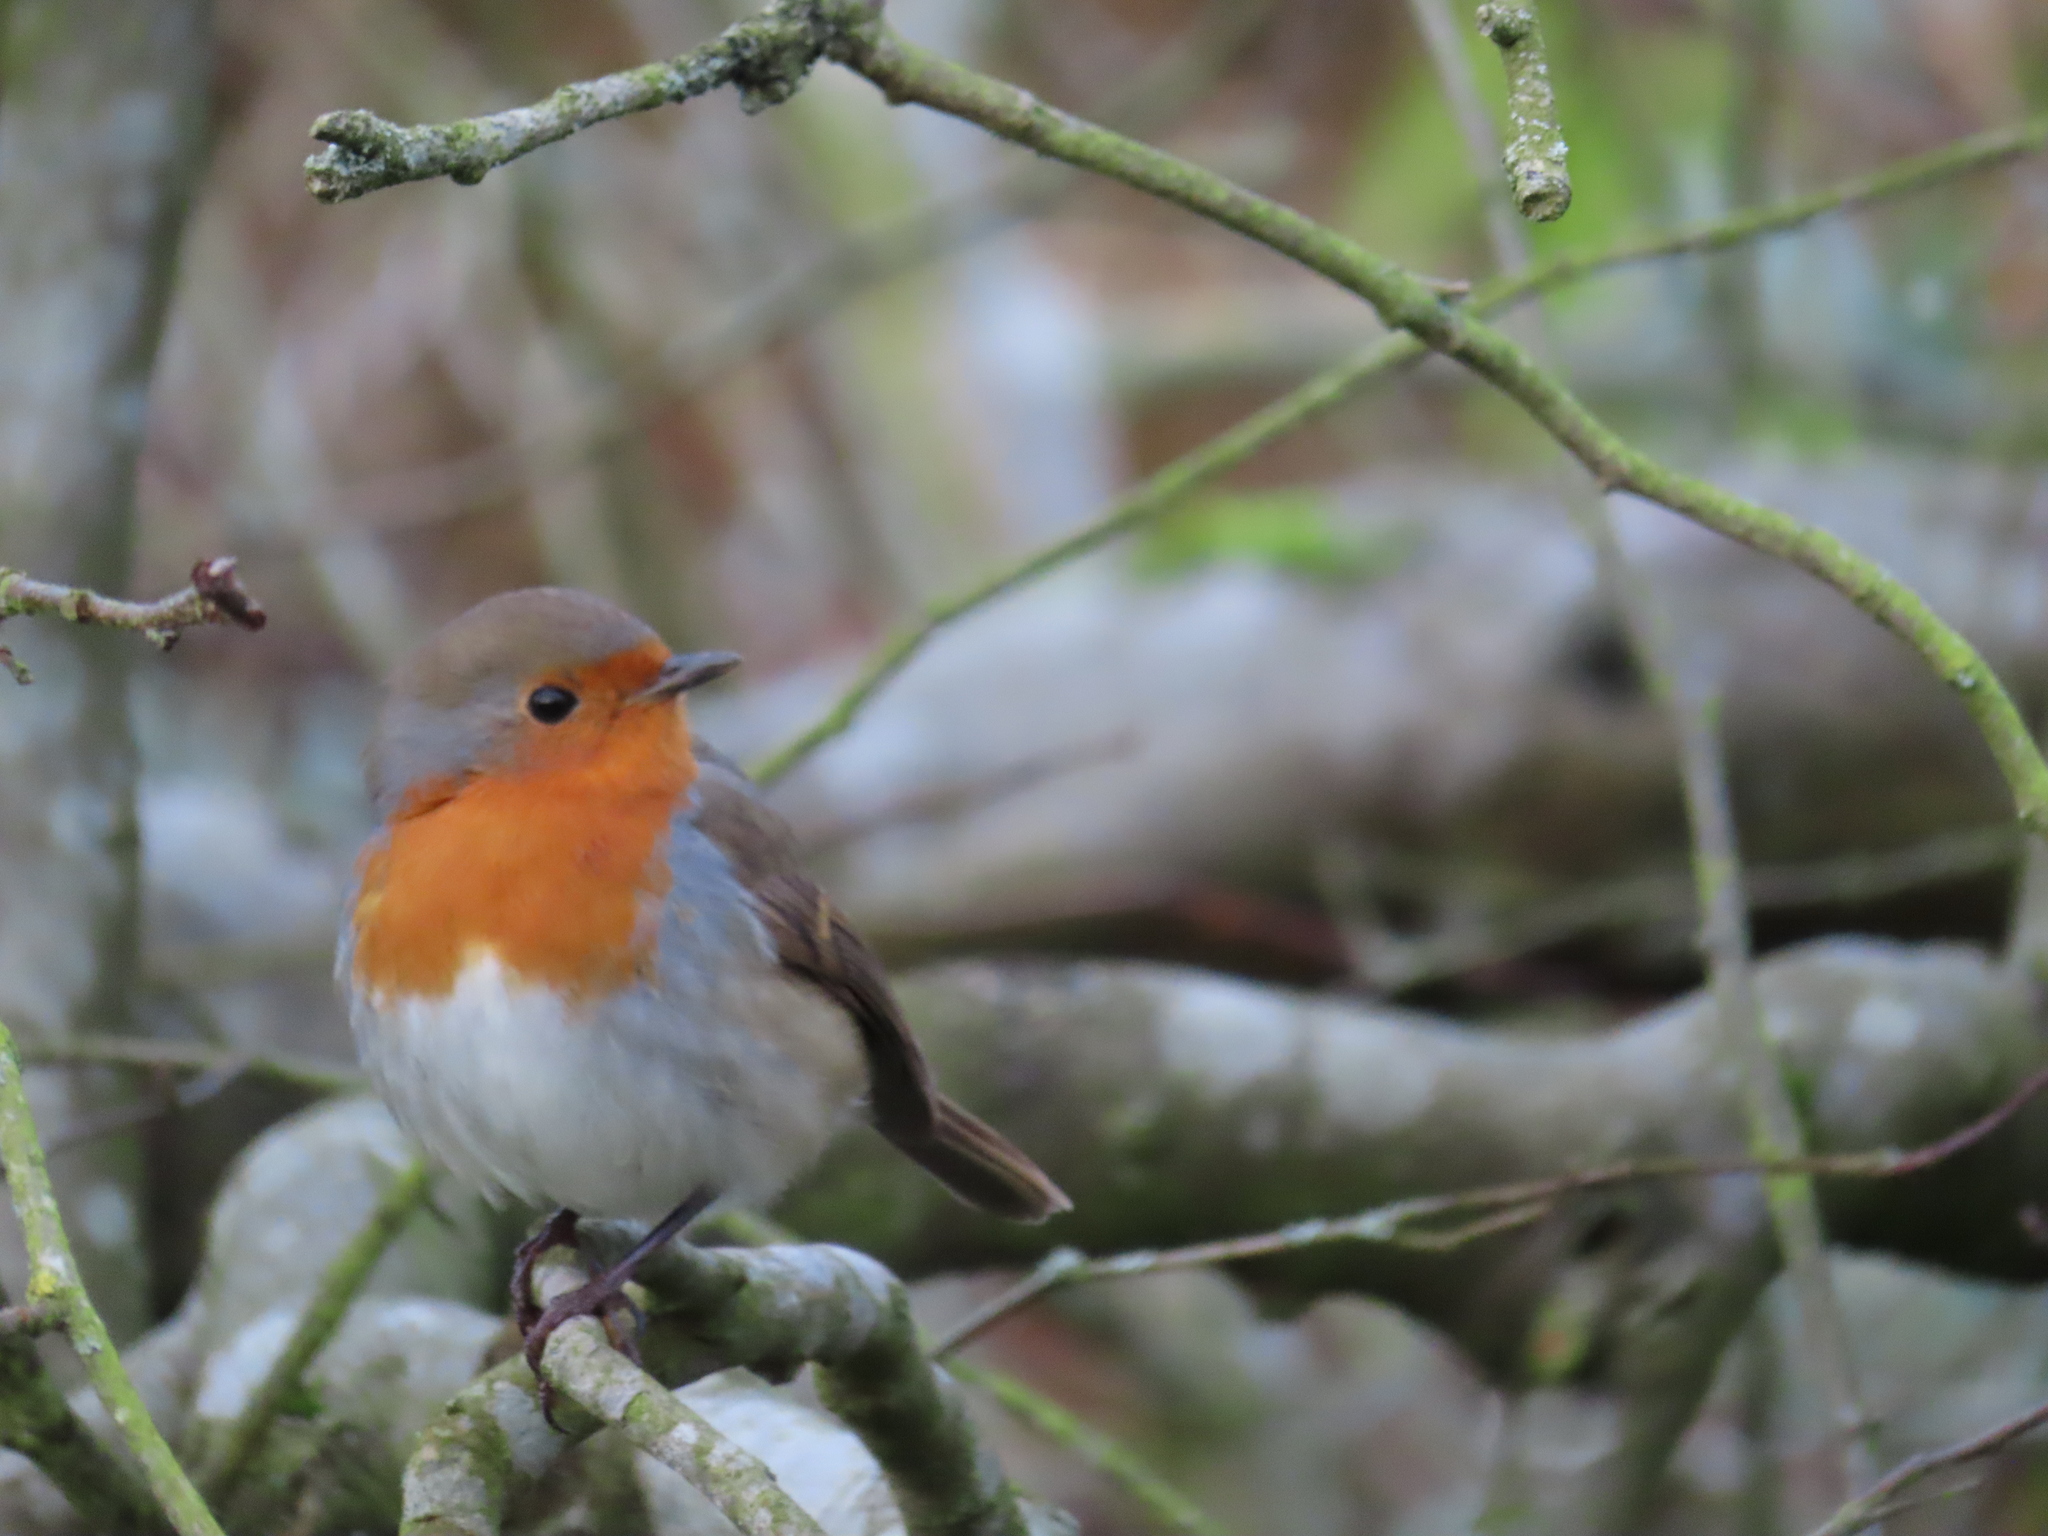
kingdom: Animalia
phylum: Chordata
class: Aves
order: Passeriformes
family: Muscicapidae
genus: Erithacus
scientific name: Erithacus rubecula
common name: European robin
